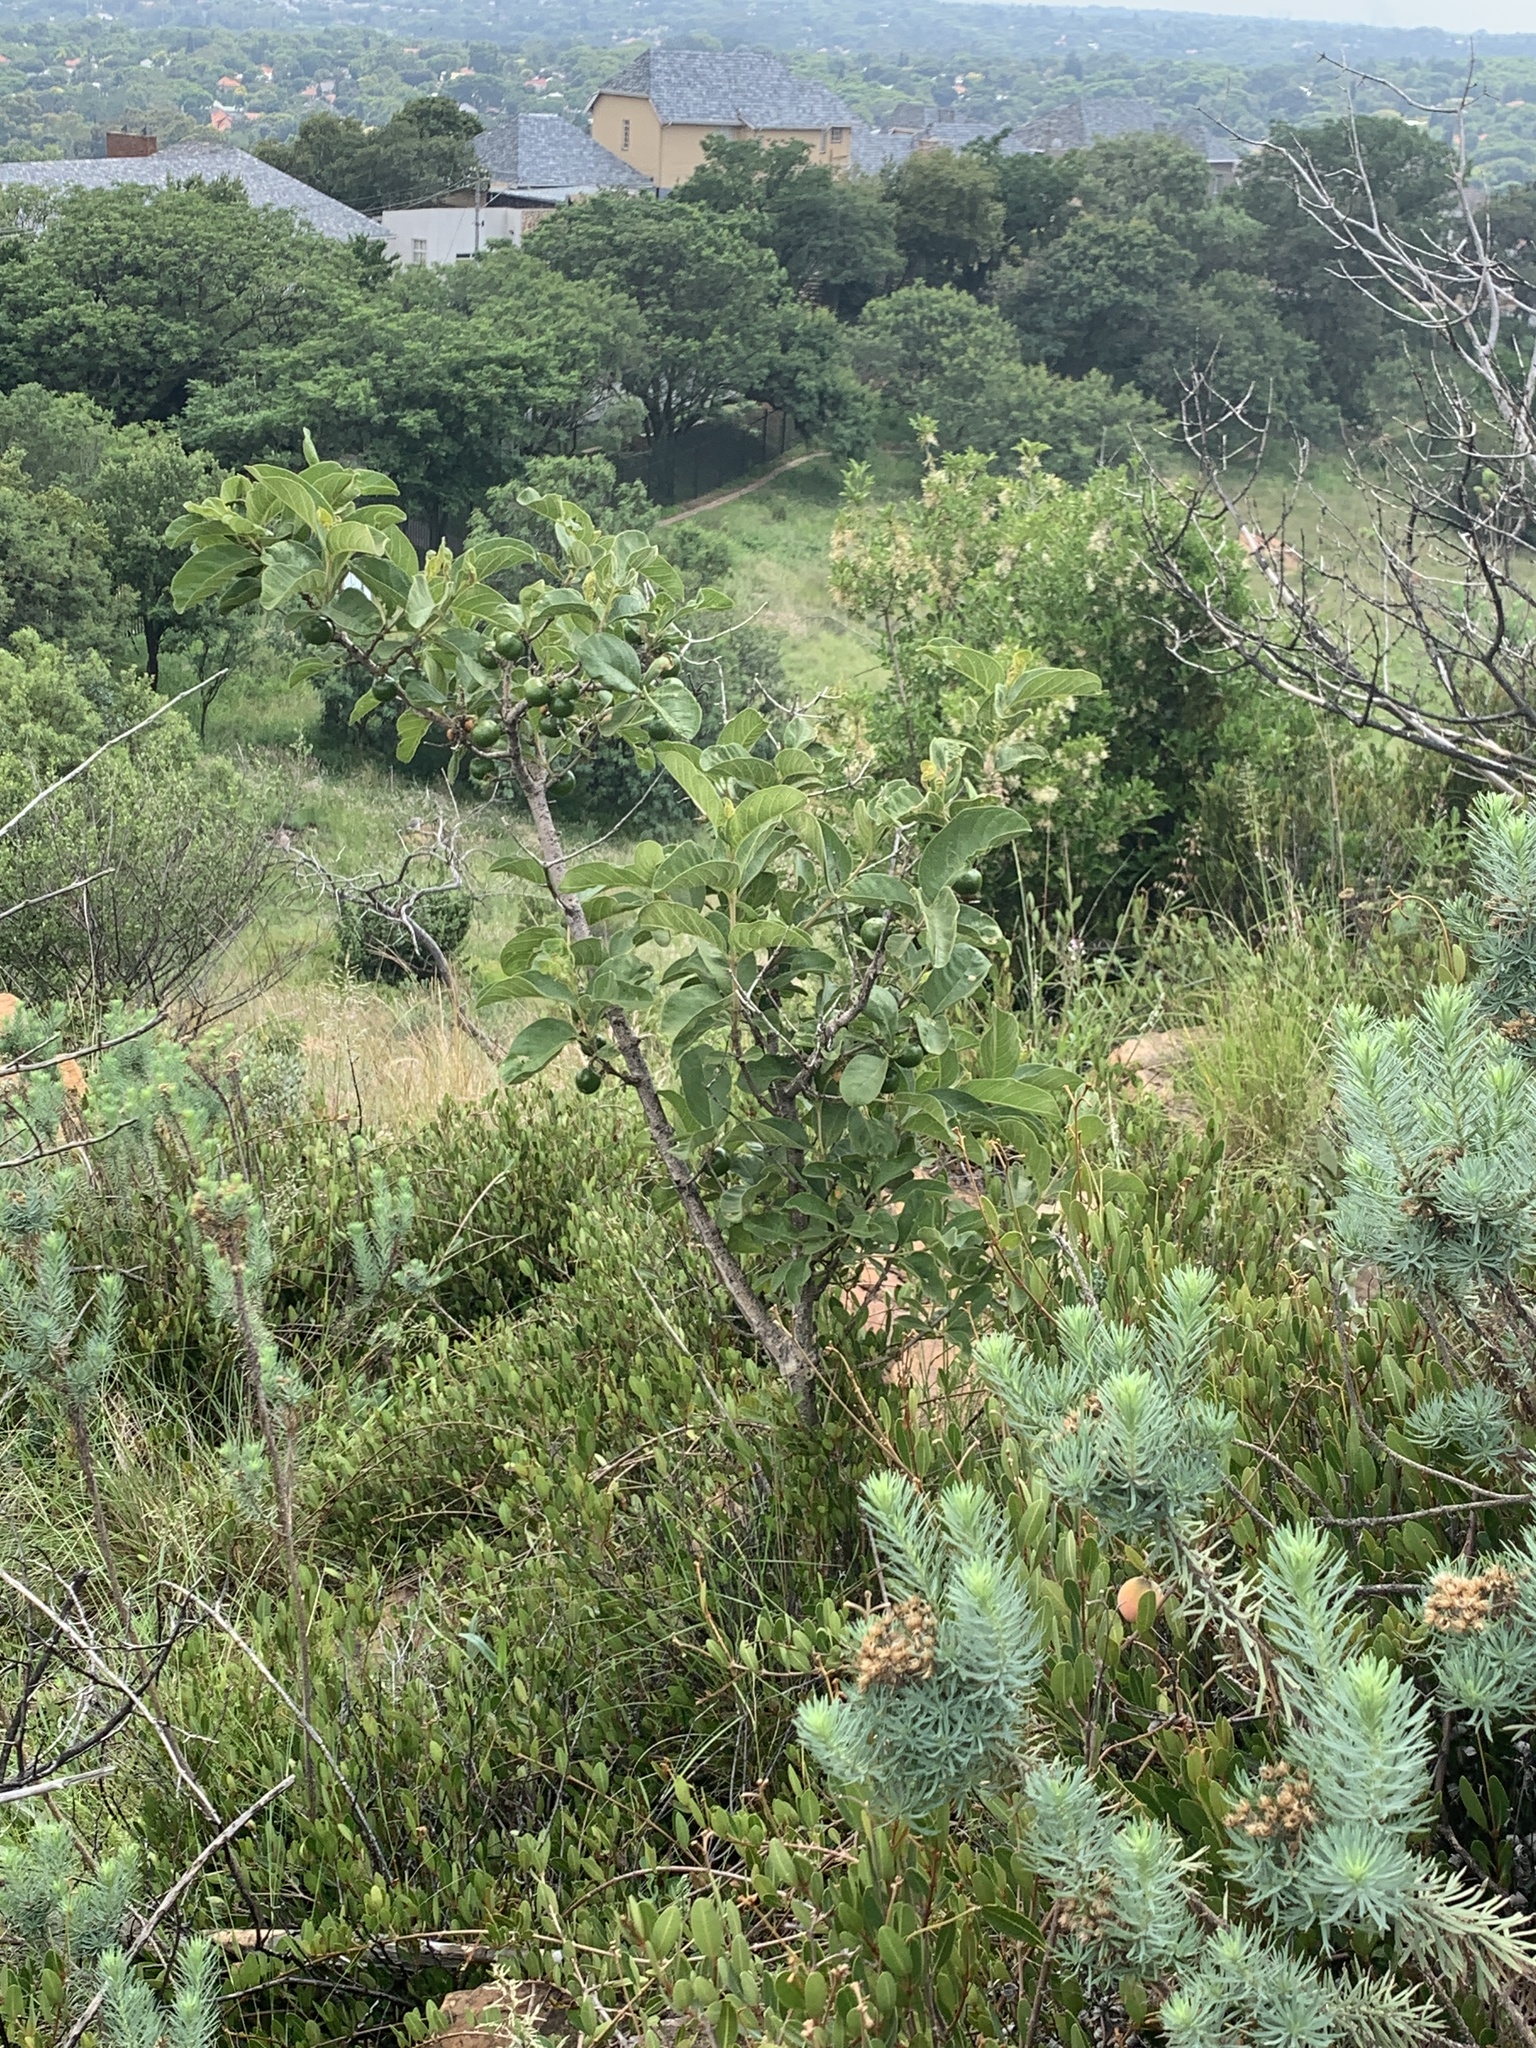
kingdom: Plantae
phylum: Tracheophyta
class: Magnoliopsida
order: Gentianales
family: Rubiaceae
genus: Vangueria
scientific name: Vangueria infausta
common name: Medlar
